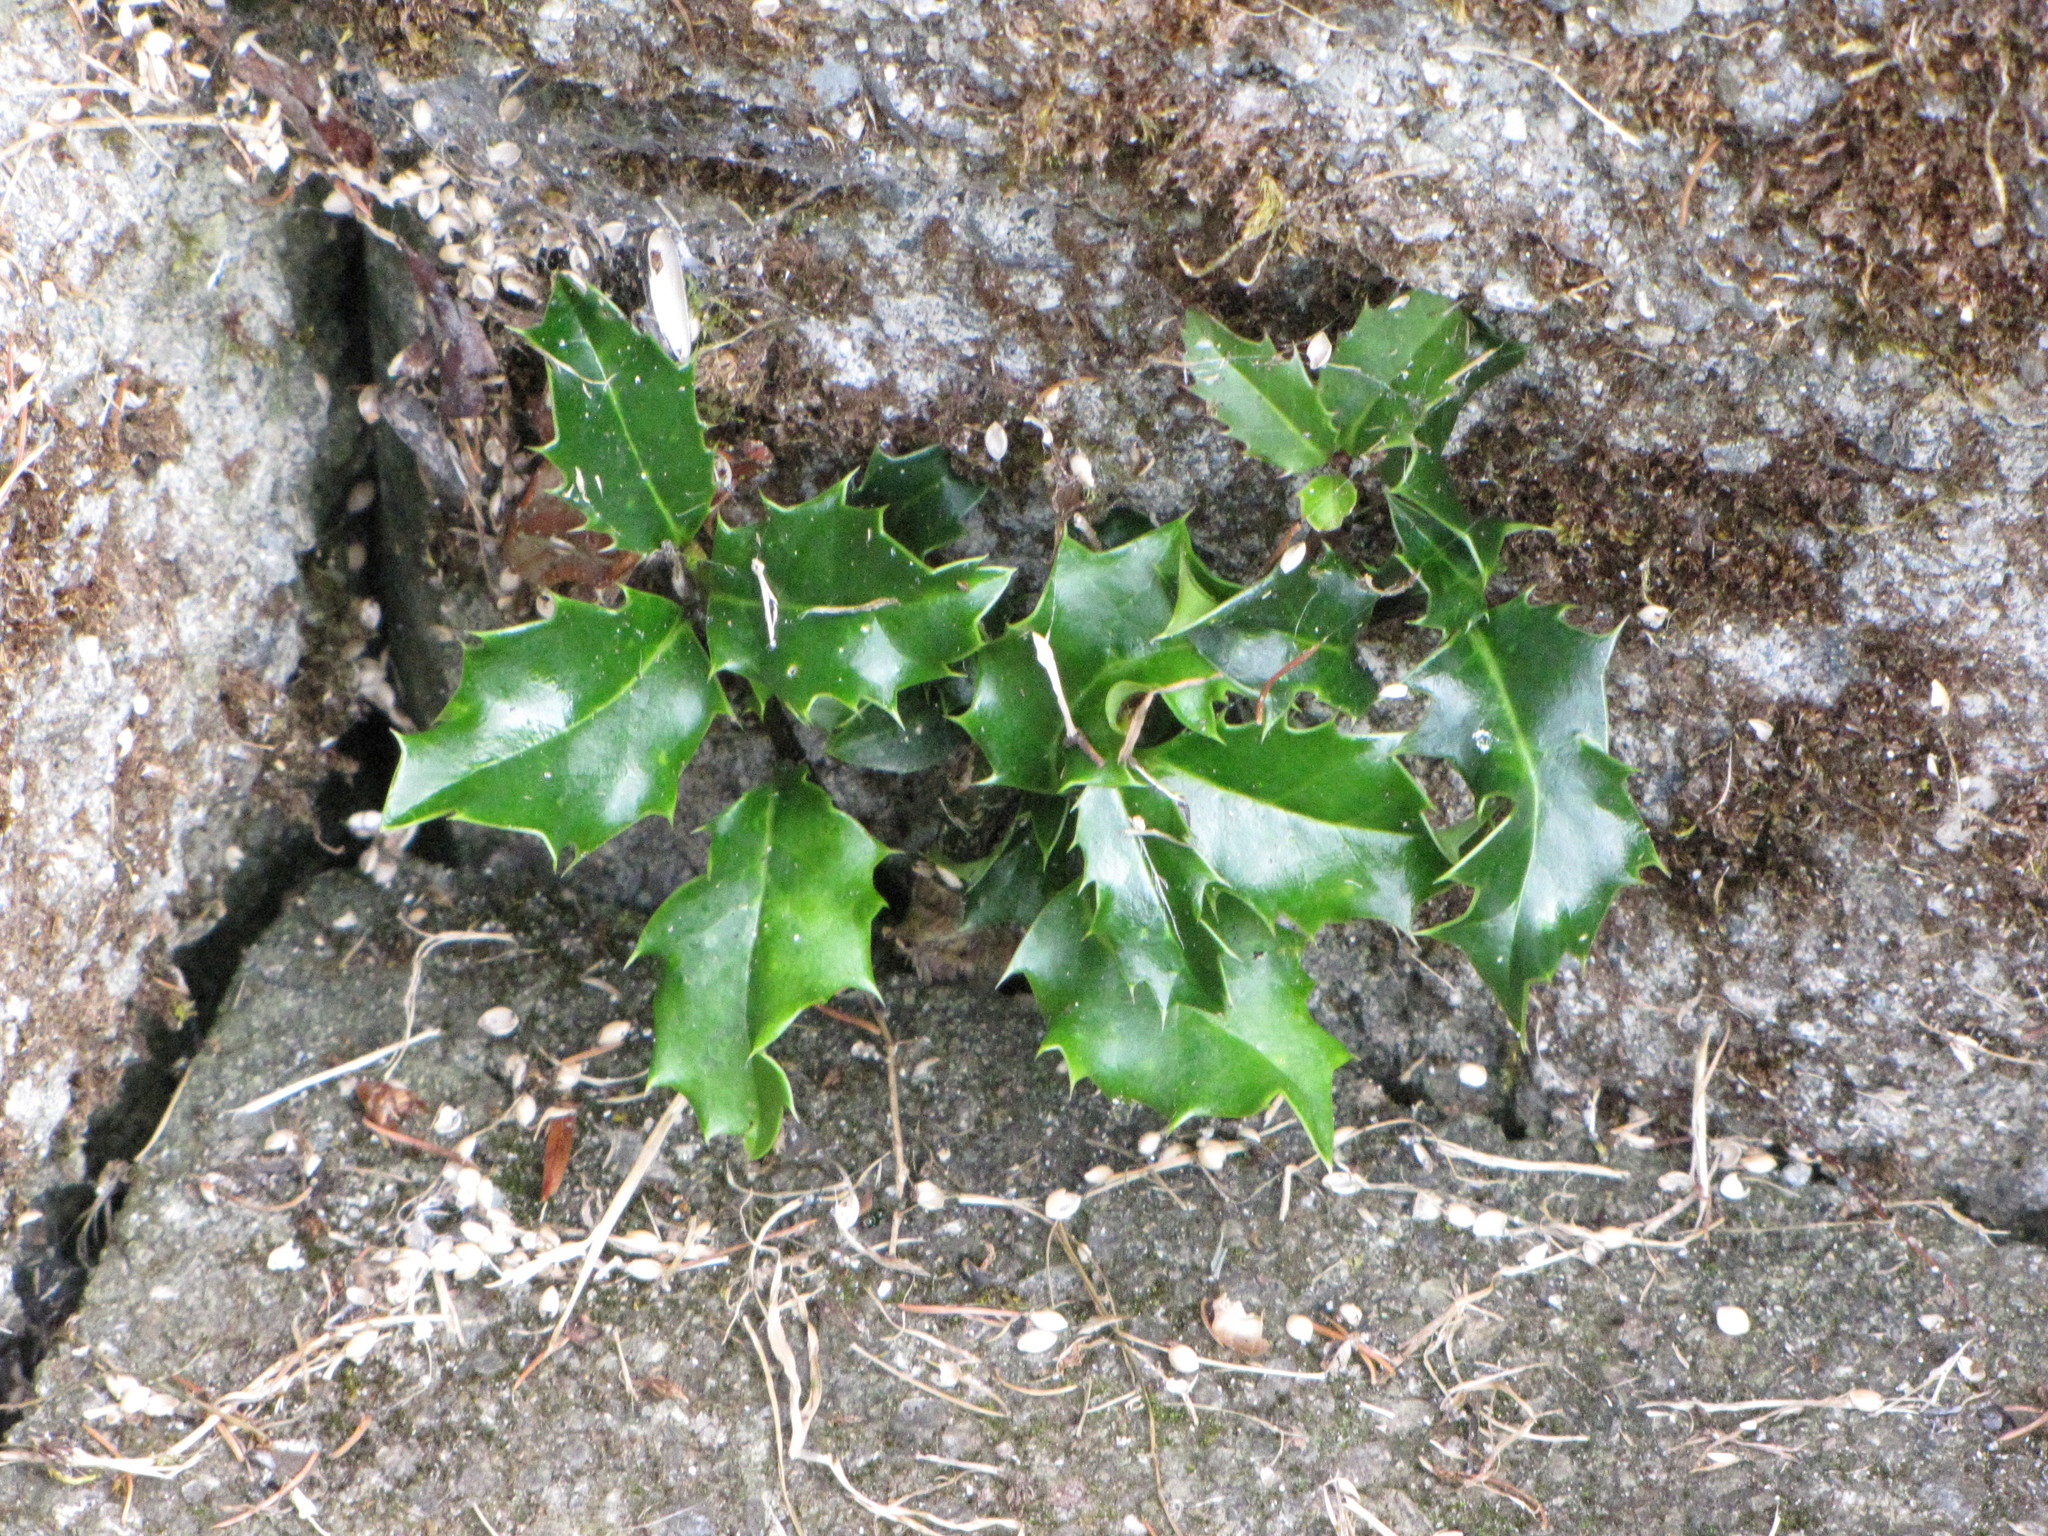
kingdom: Plantae
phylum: Tracheophyta
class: Magnoliopsida
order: Aquifoliales
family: Aquifoliaceae
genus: Ilex
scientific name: Ilex aquifolium
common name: English holly
